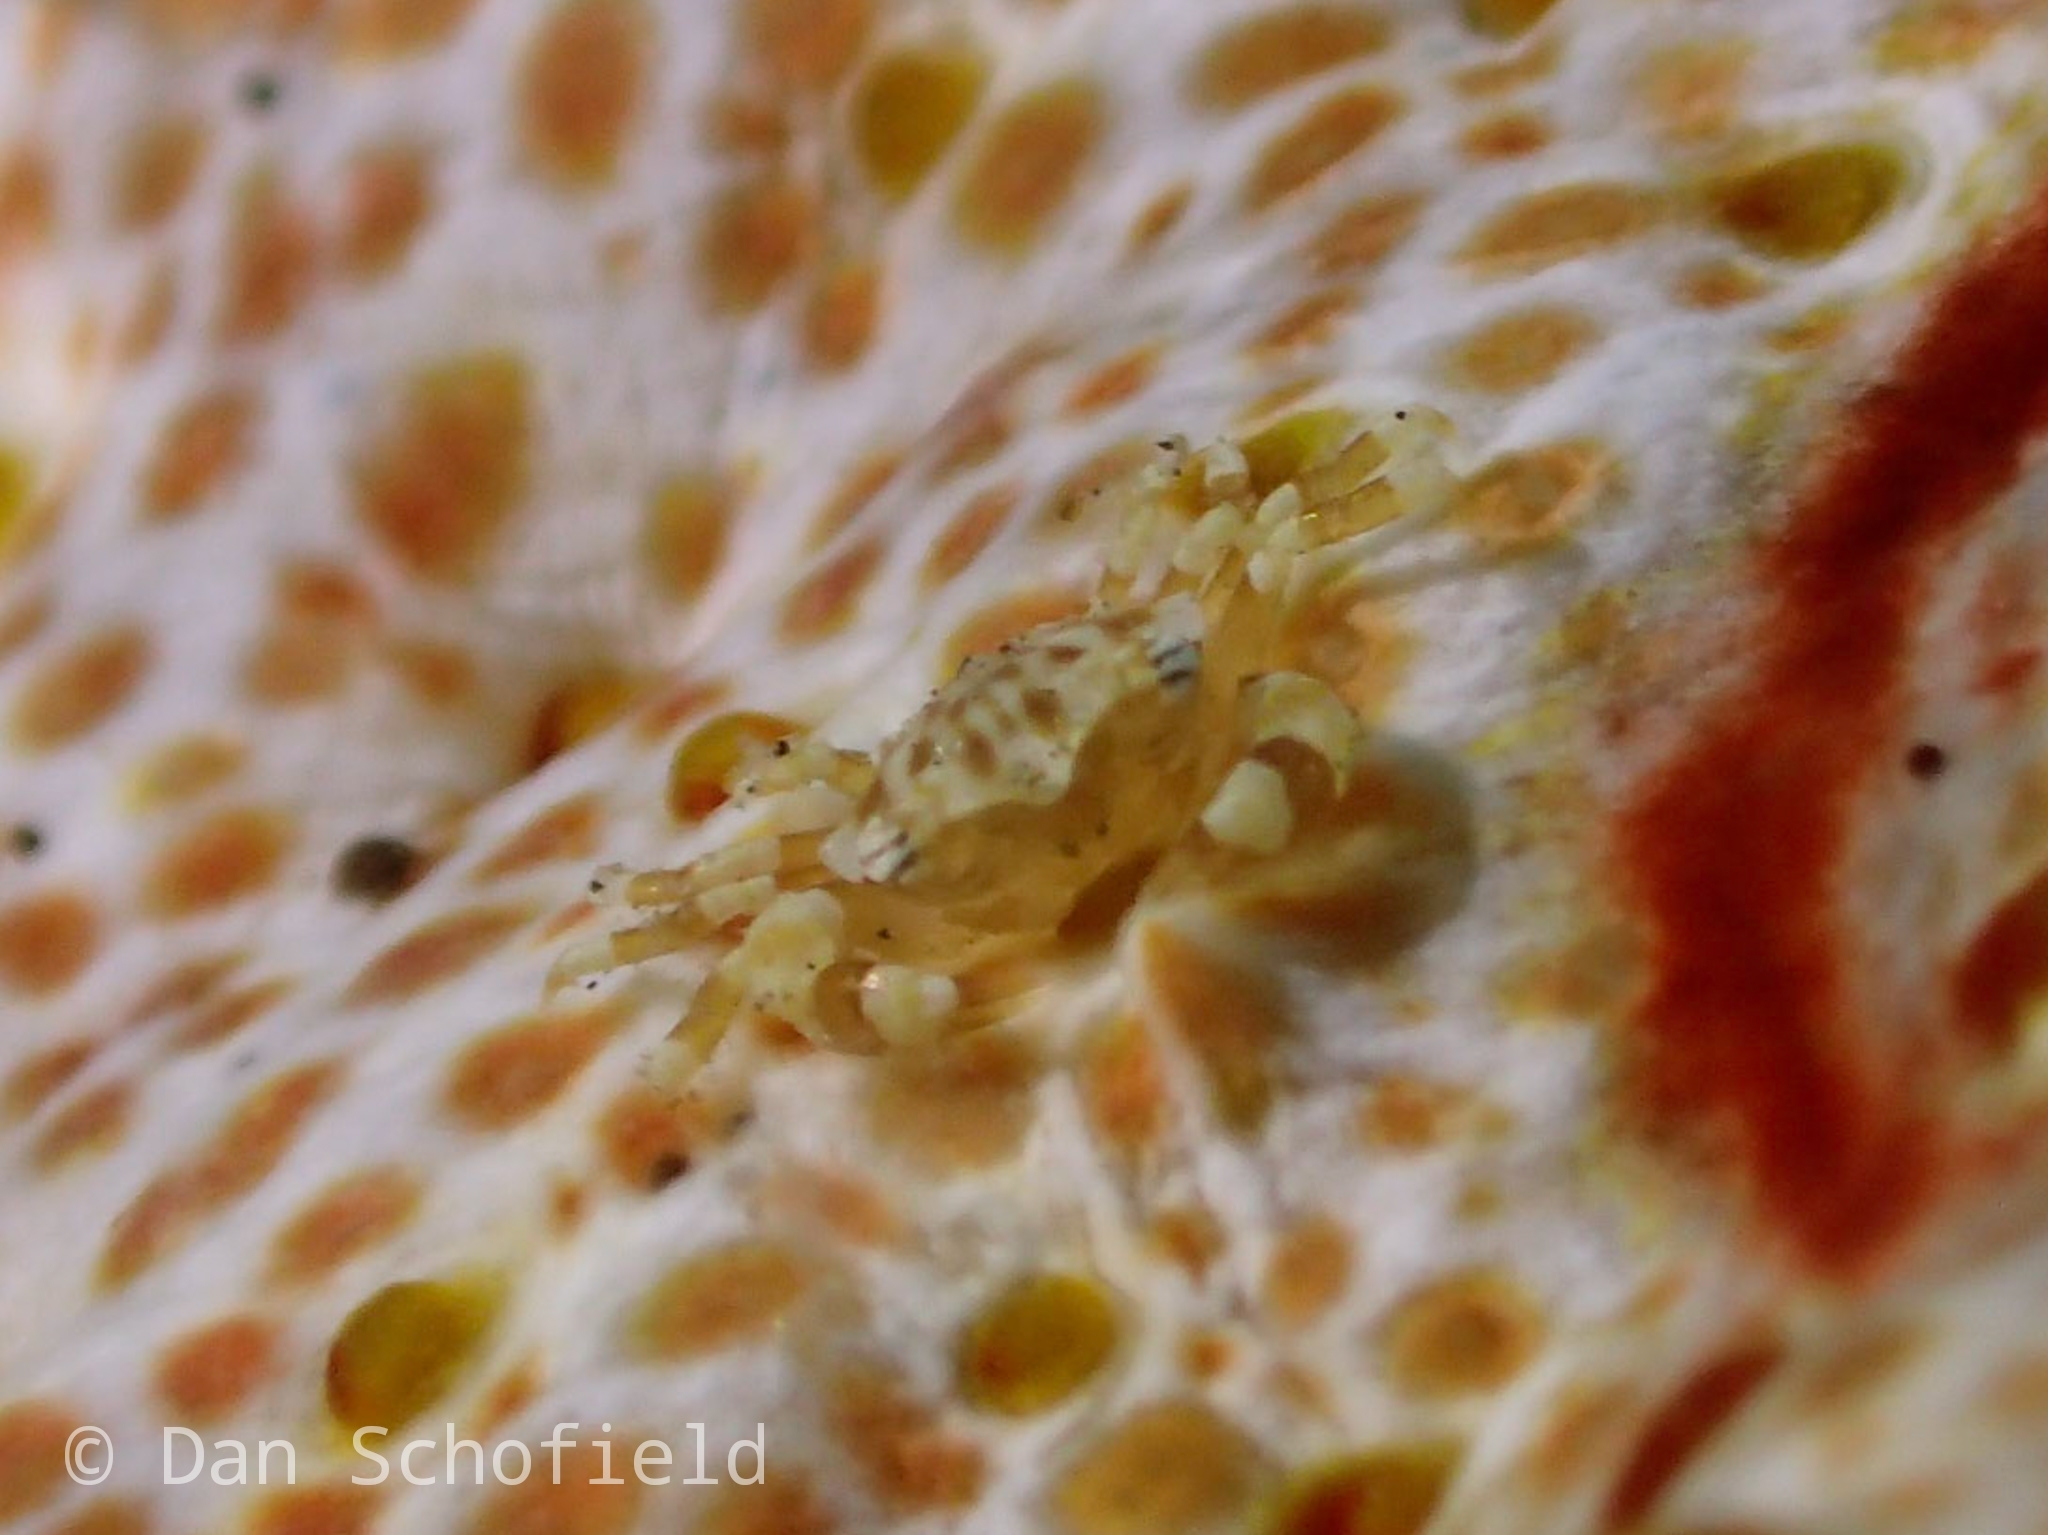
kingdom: Animalia
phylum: Arthropoda
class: Malacostraca
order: Decapoda
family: Portunidae
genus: Lissocarcinus
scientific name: Lissocarcinus orbicularis
